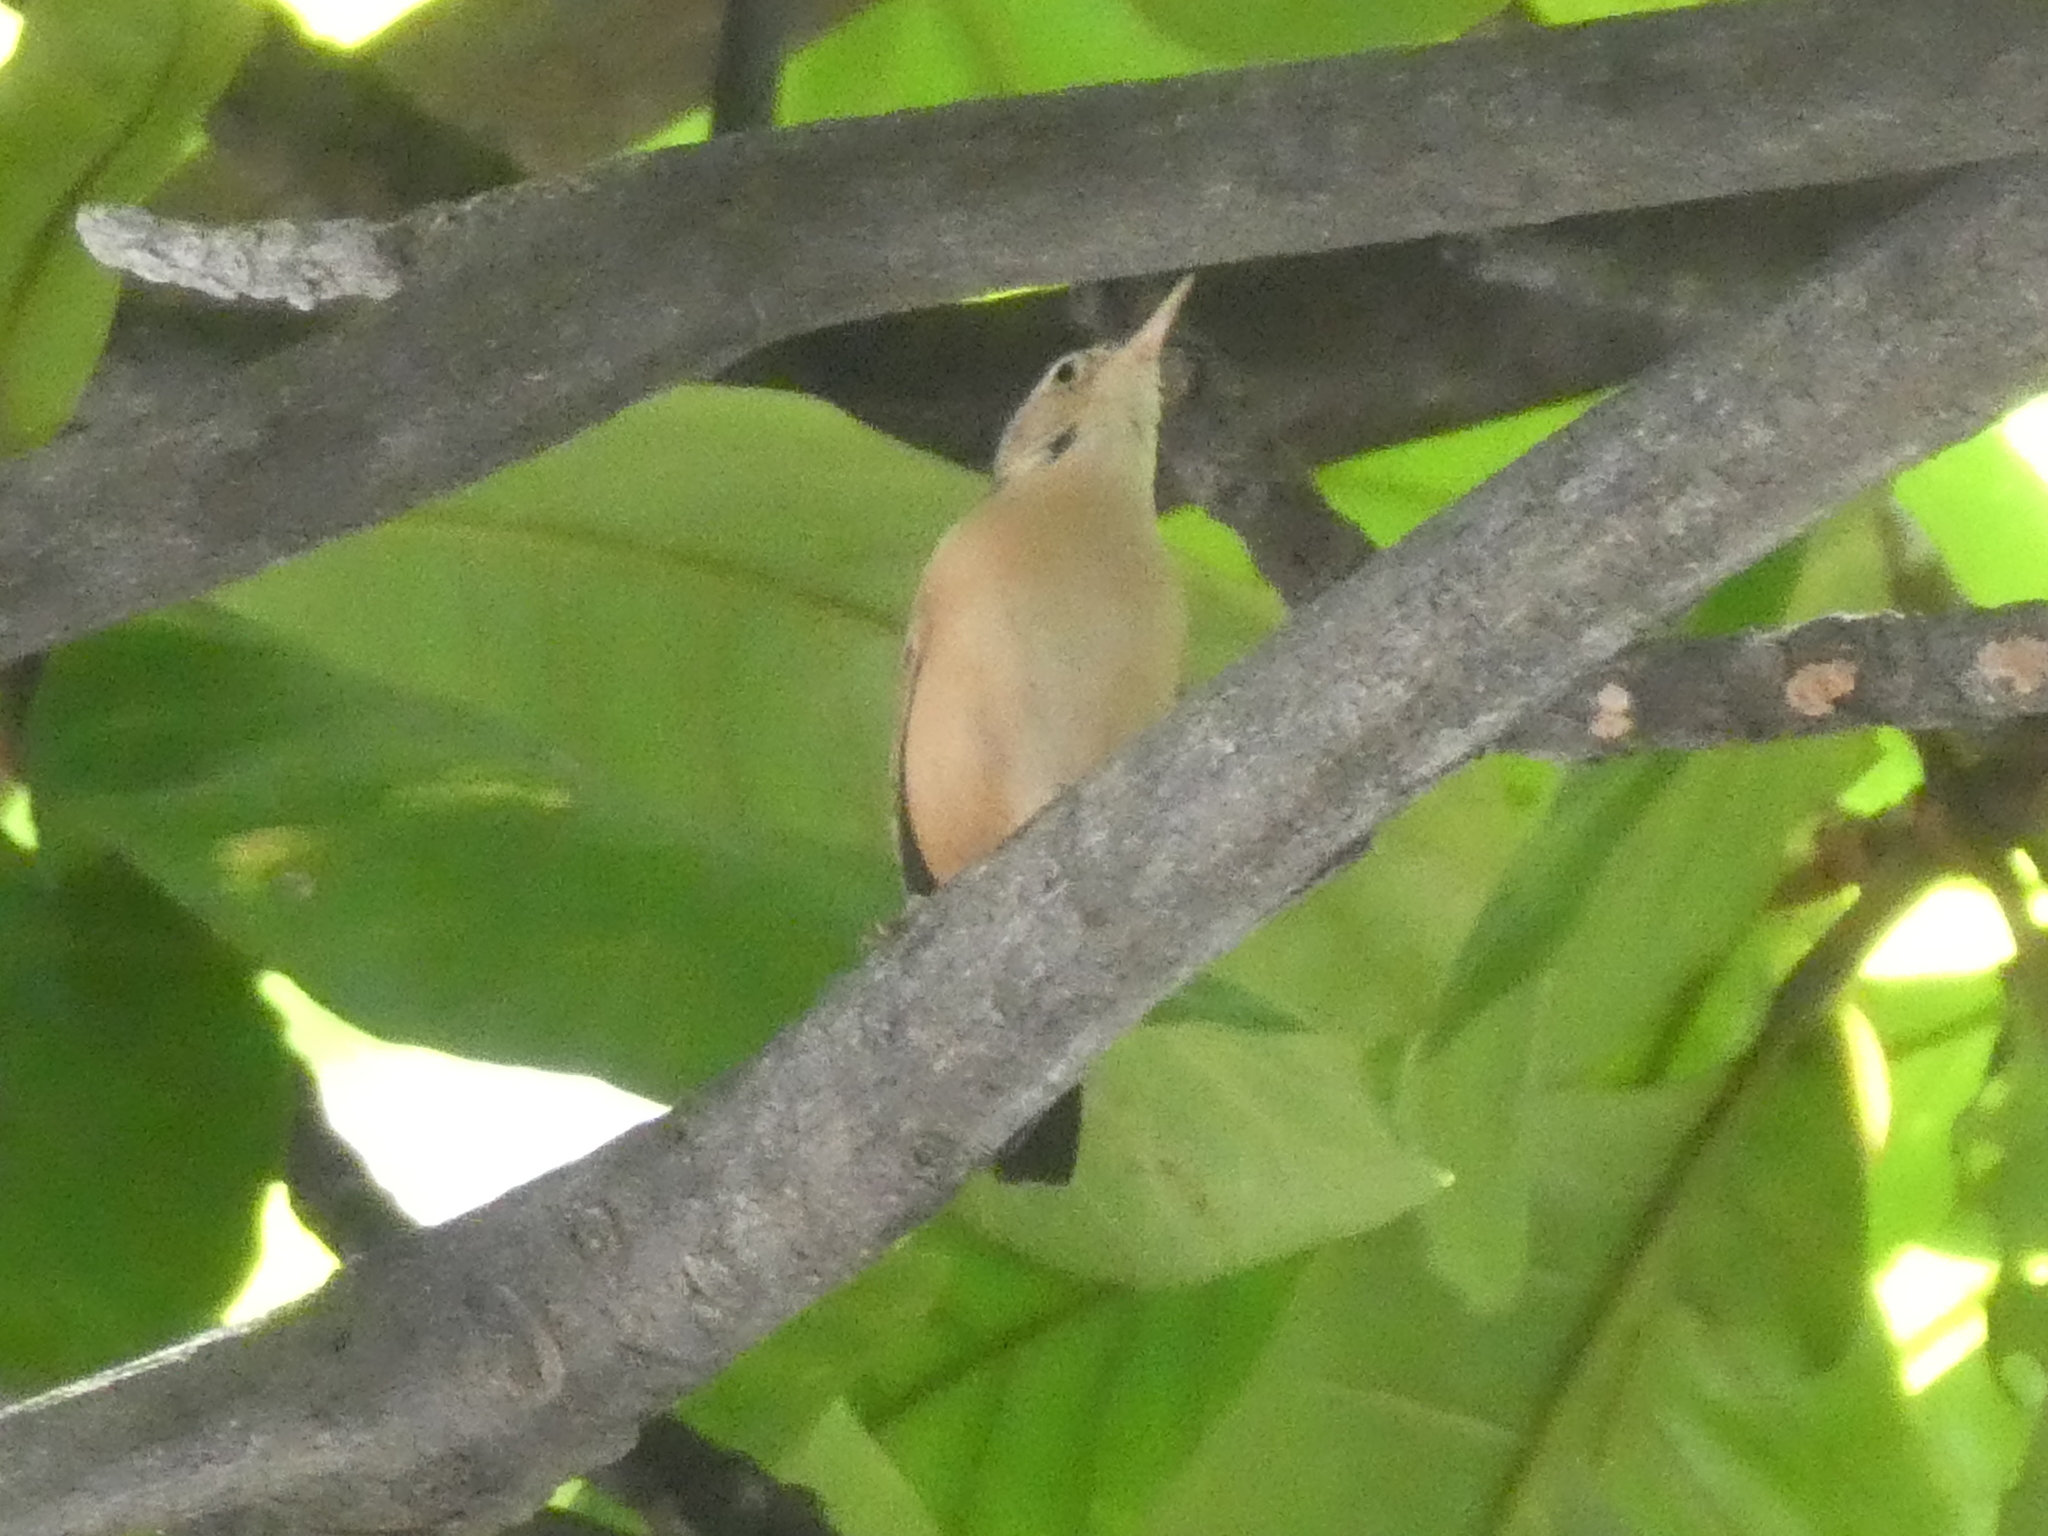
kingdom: Animalia
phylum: Chordata
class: Aves
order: Passeriformes
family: Furnariidae
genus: Furnarius
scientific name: Furnarius rufus
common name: Rufous hornero
